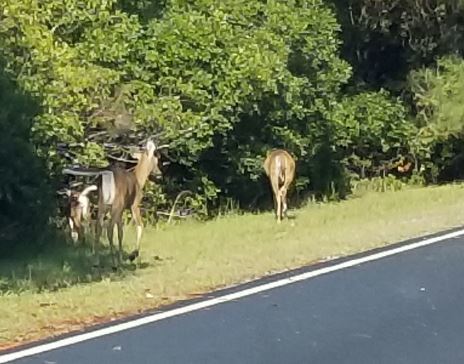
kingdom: Animalia
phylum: Chordata
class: Mammalia
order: Artiodactyla
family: Cervidae
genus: Odocoileus
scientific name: Odocoileus virginianus
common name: White-tailed deer
